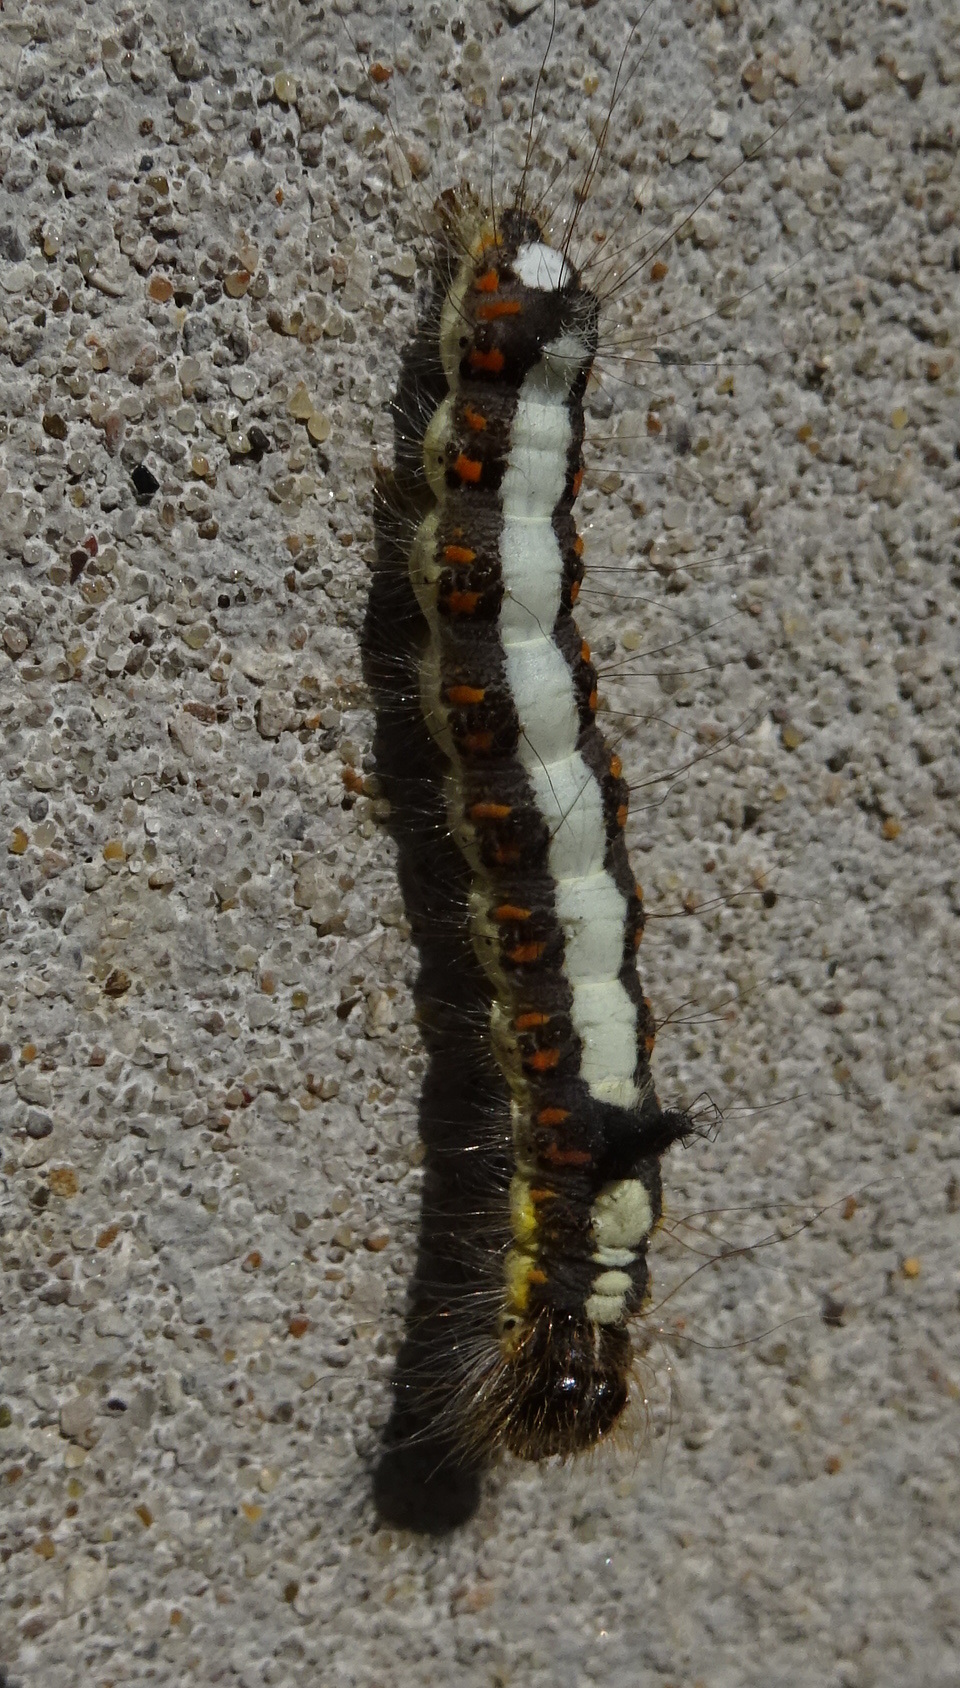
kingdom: Animalia
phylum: Arthropoda
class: Insecta
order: Lepidoptera
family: Noctuidae
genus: Acronicta
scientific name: Acronicta psi
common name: Grey dagger
